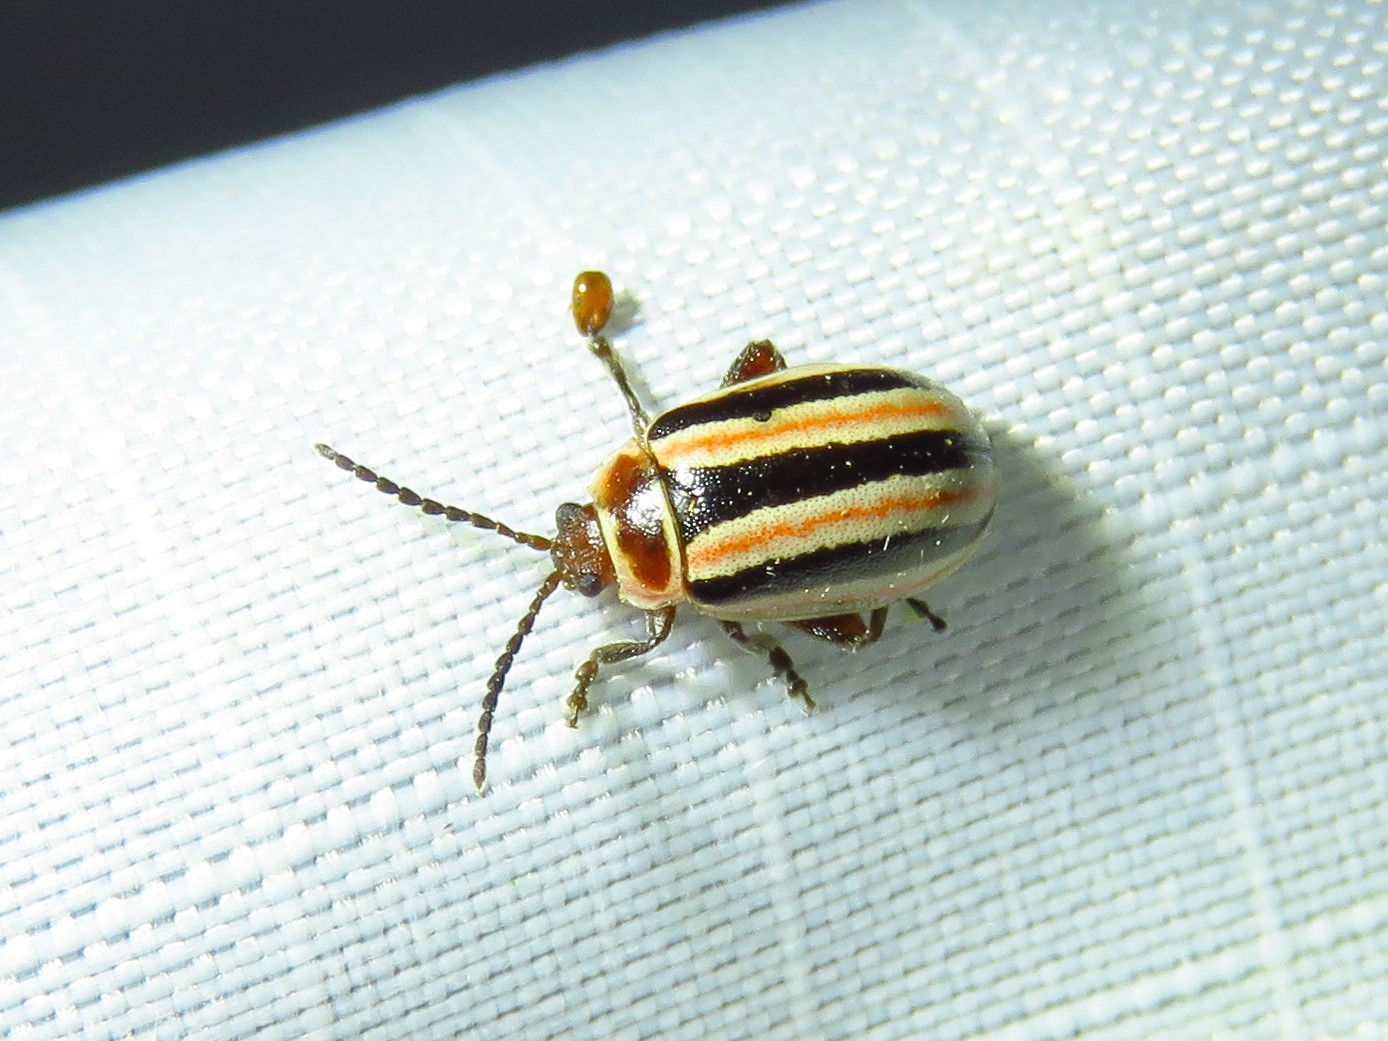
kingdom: Animalia
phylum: Arthropoda
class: Insecta
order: Coleoptera
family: Chrysomelidae
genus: Kuschelina
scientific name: Kuschelina miniata
